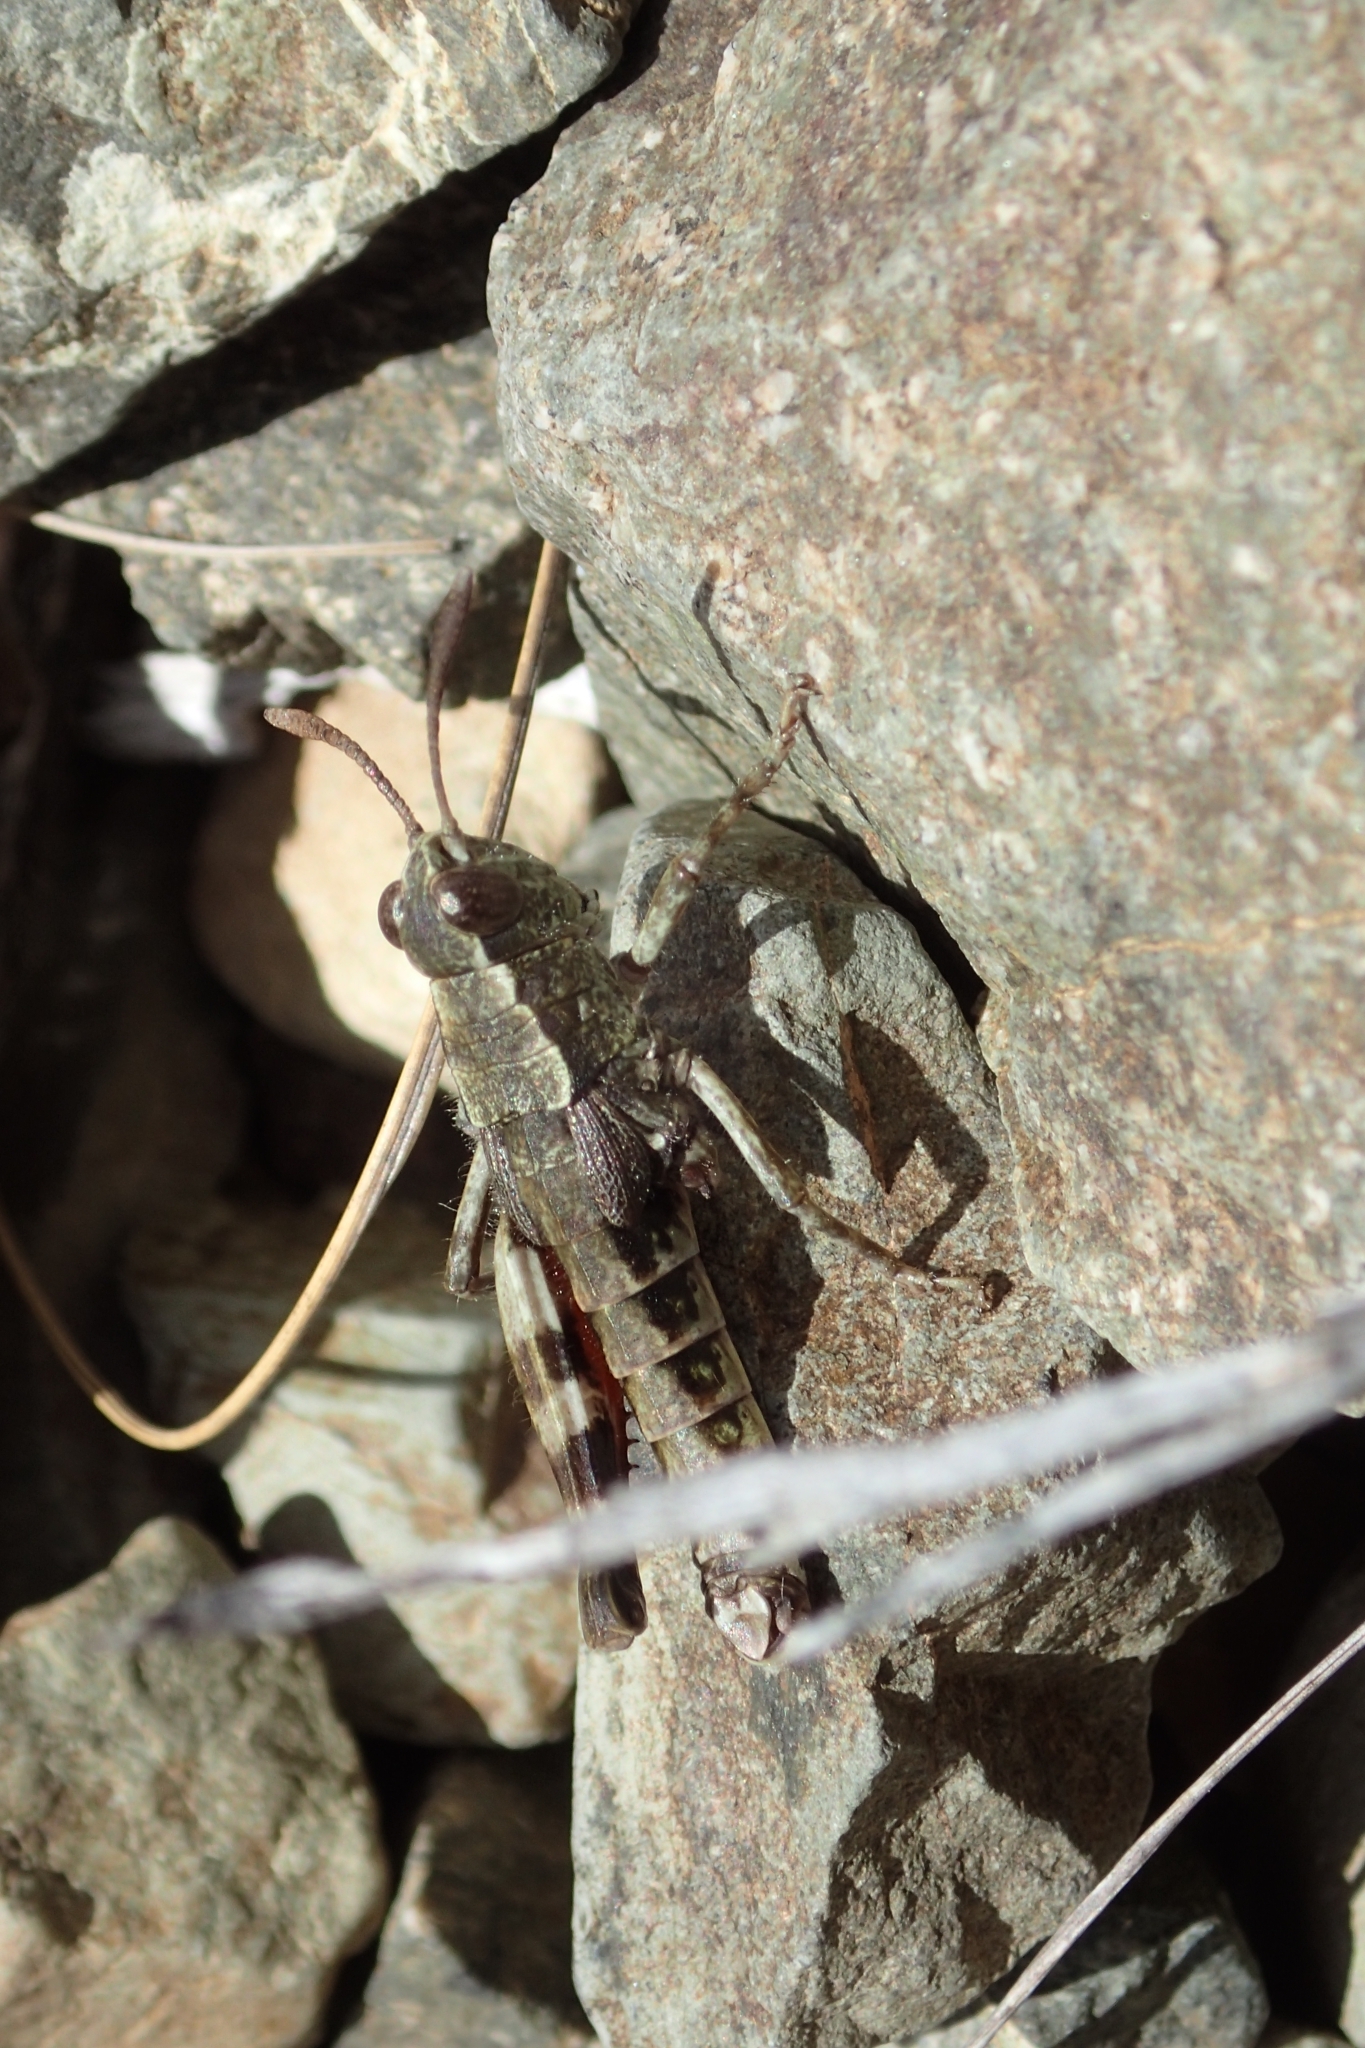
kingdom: Animalia
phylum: Arthropoda
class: Insecta
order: Orthoptera
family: Acrididae
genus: Sigaus
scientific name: Sigaus australis
